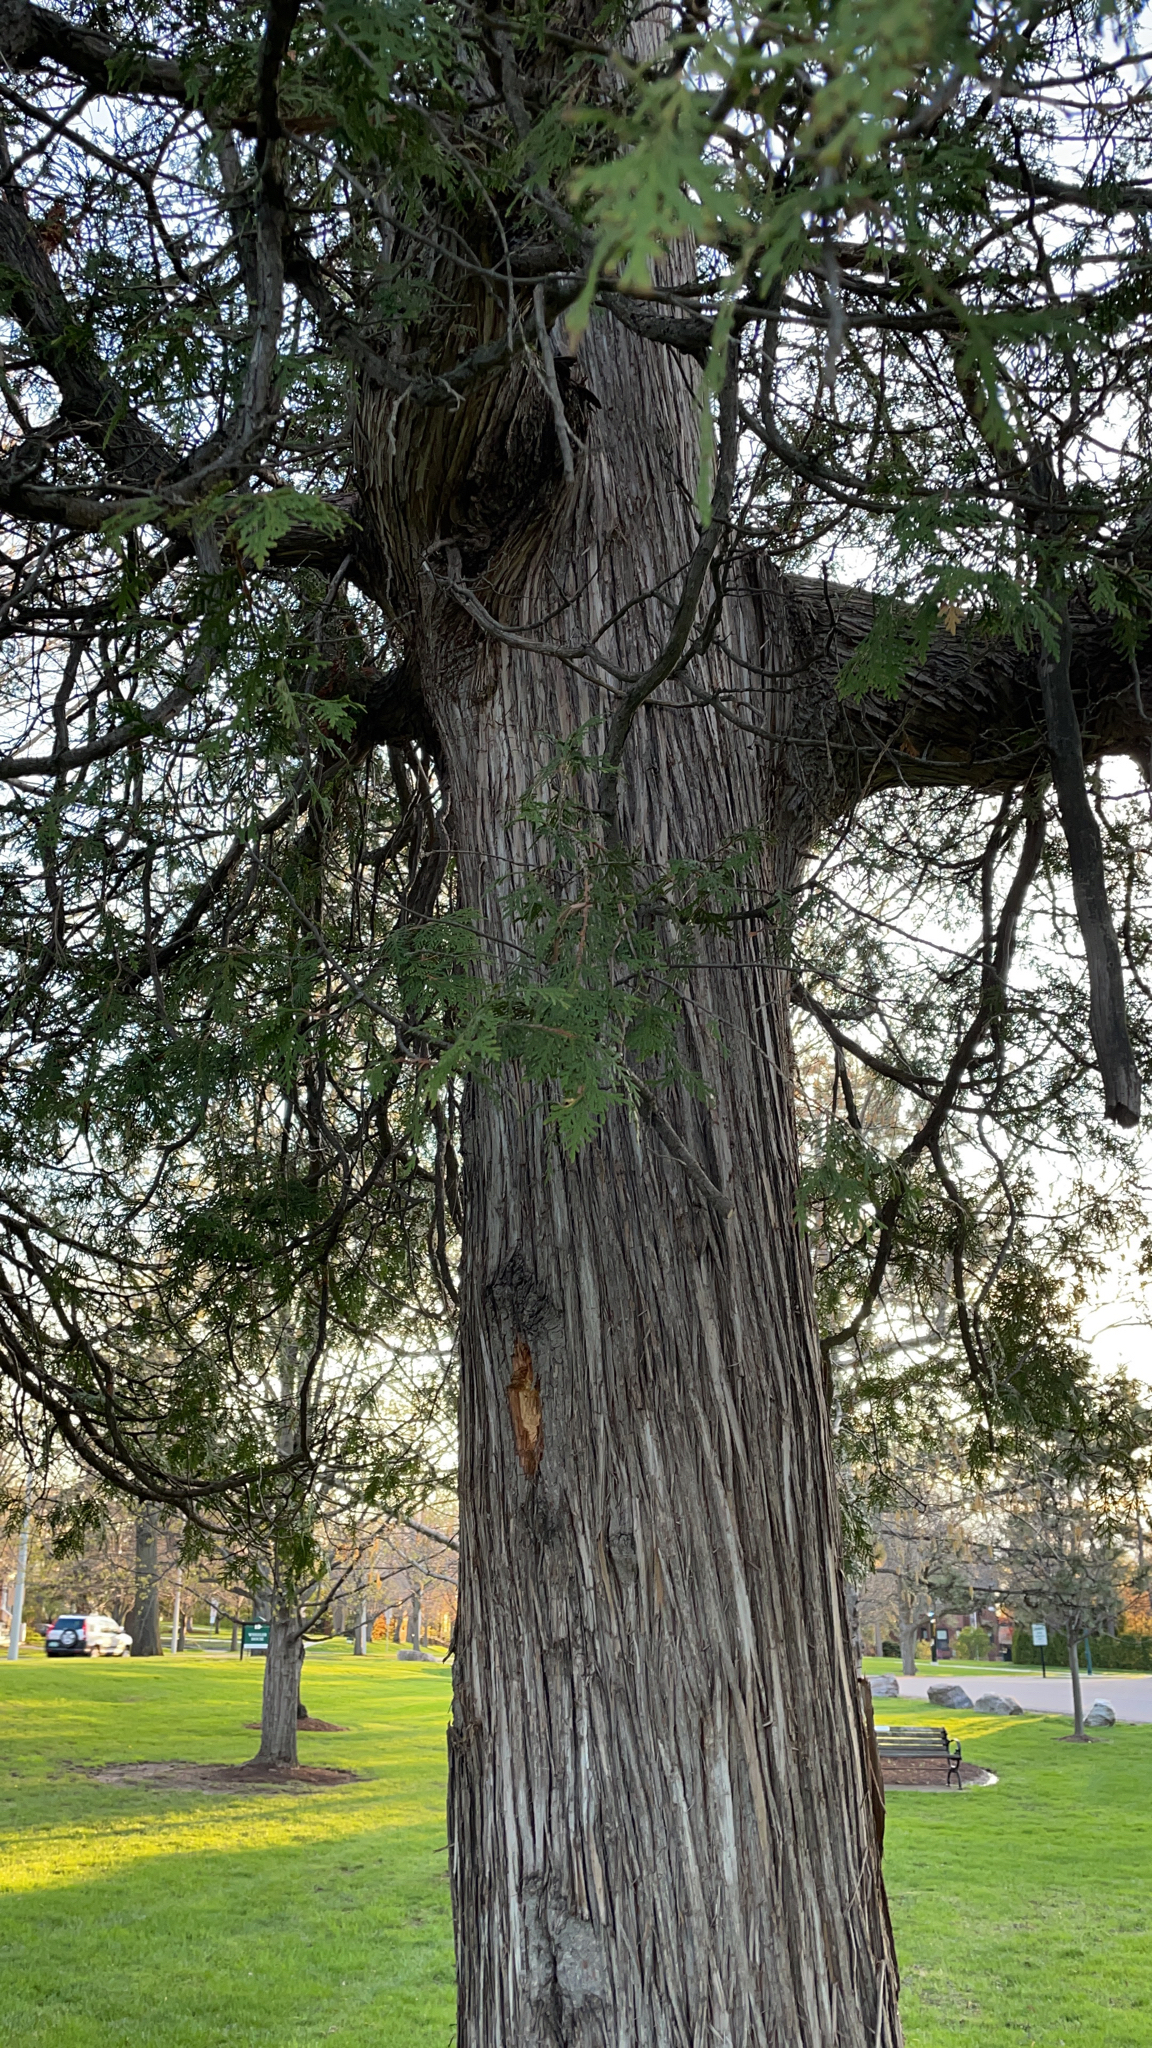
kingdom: Plantae
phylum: Tracheophyta
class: Pinopsida
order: Pinales
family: Cupressaceae
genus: Thuja
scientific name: Thuja occidentalis
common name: Northern white-cedar
